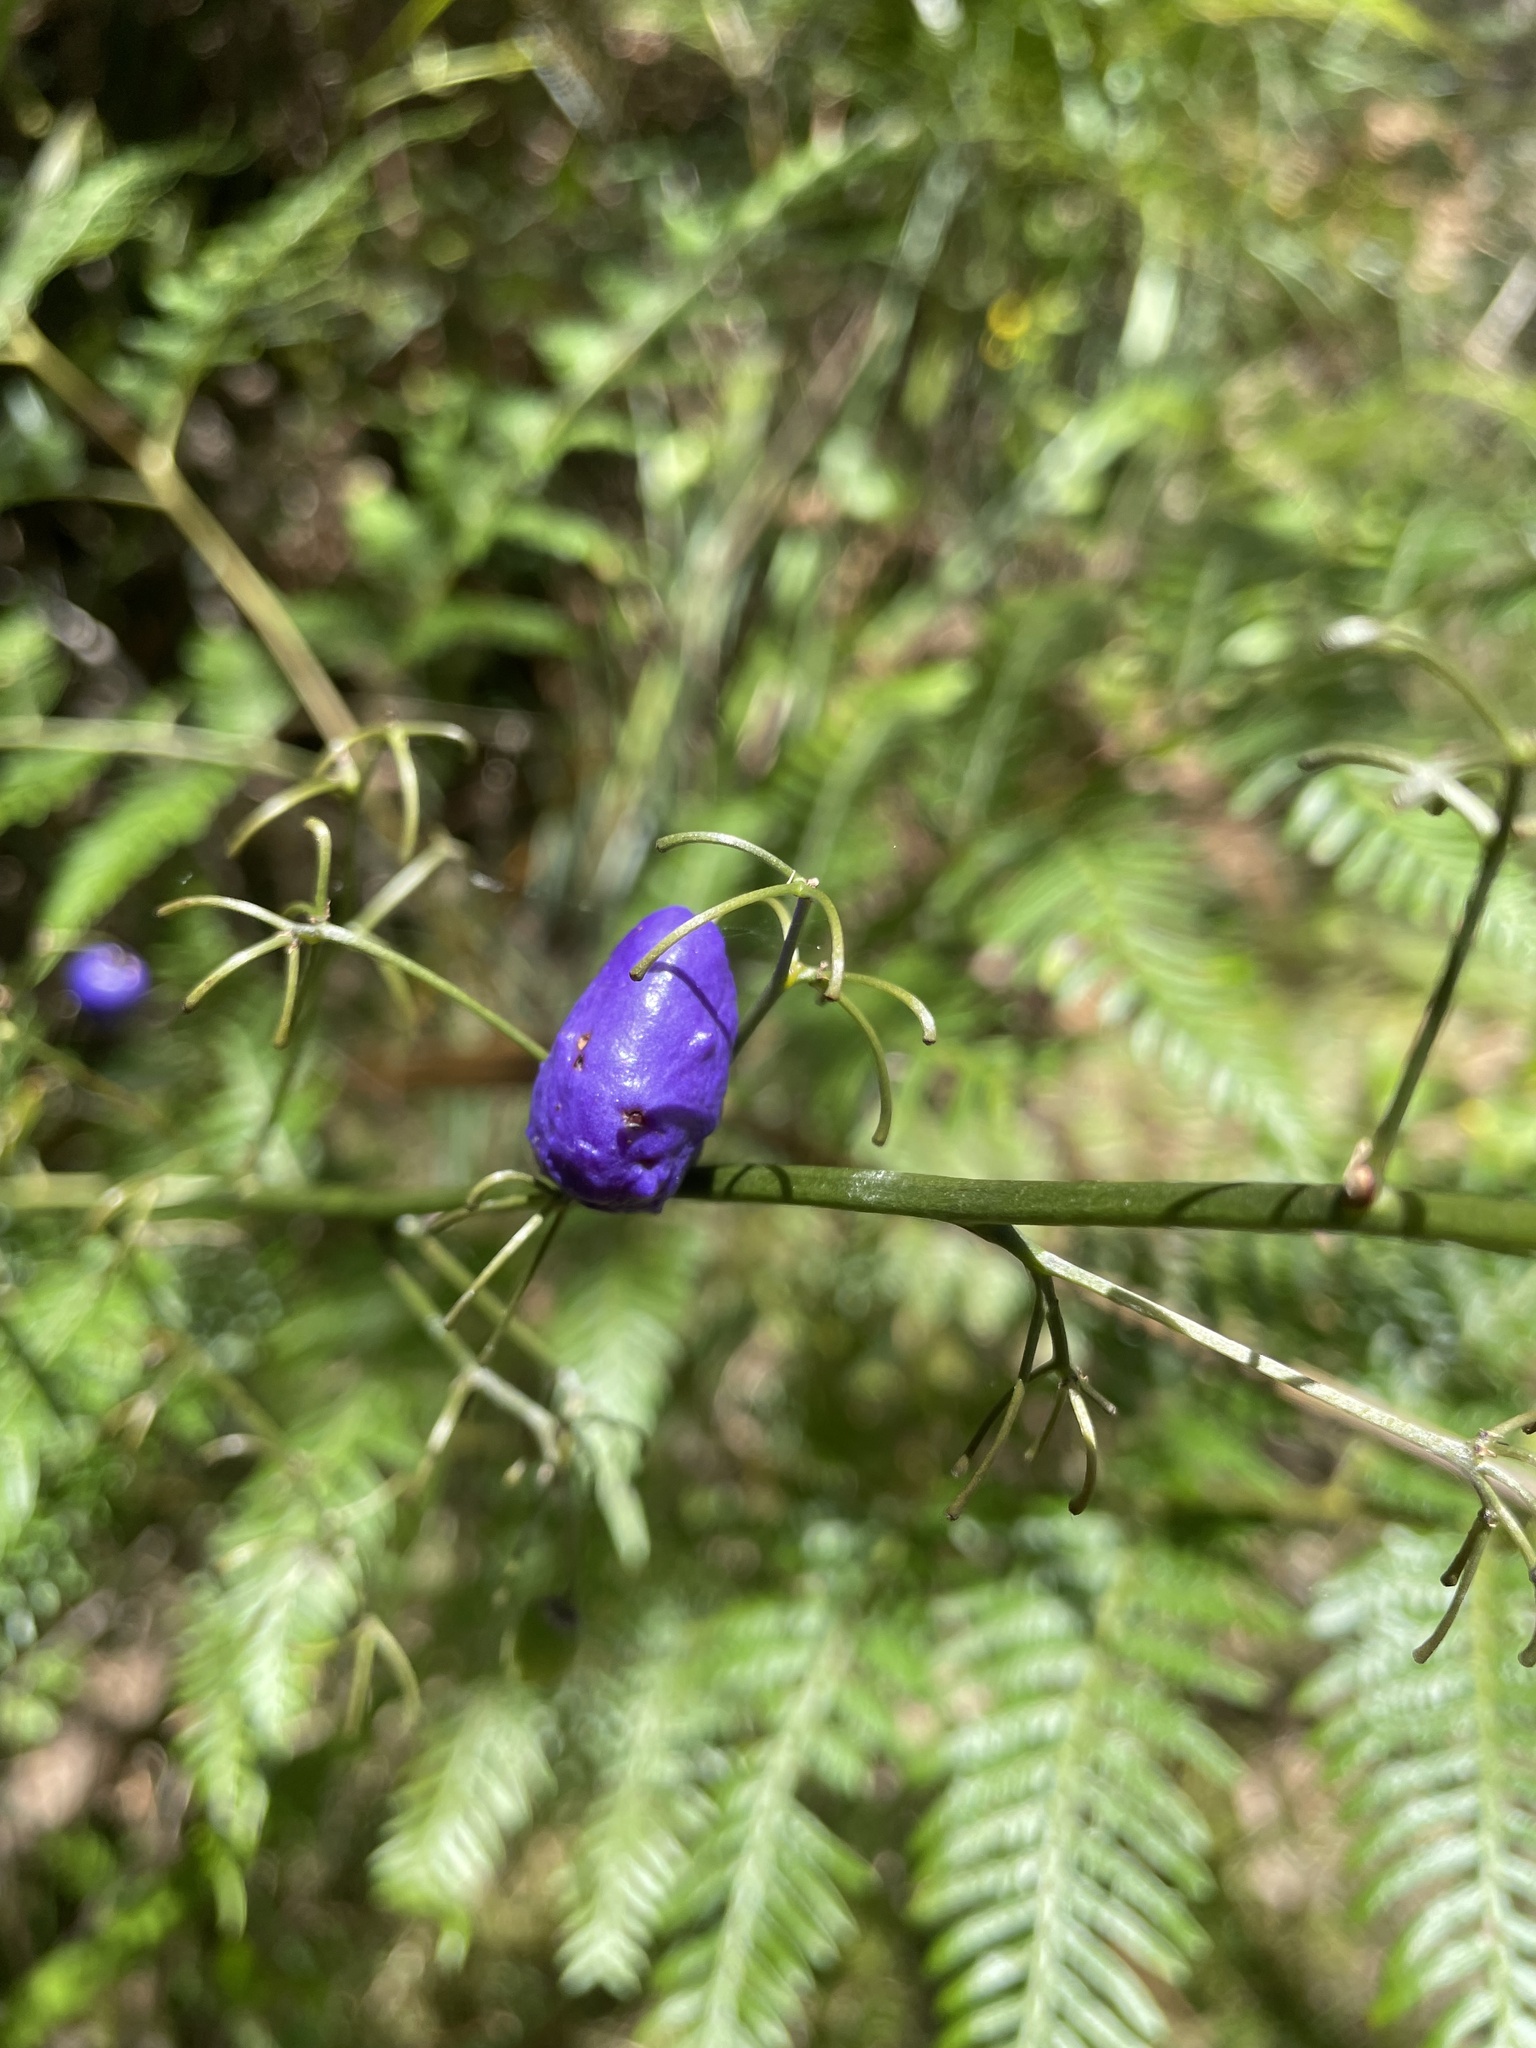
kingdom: Plantae
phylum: Tracheophyta
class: Liliopsida
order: Asparagales
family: Asphodelaceae
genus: Dianella
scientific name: Dianella tasmanica
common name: Tasman flax-lily
